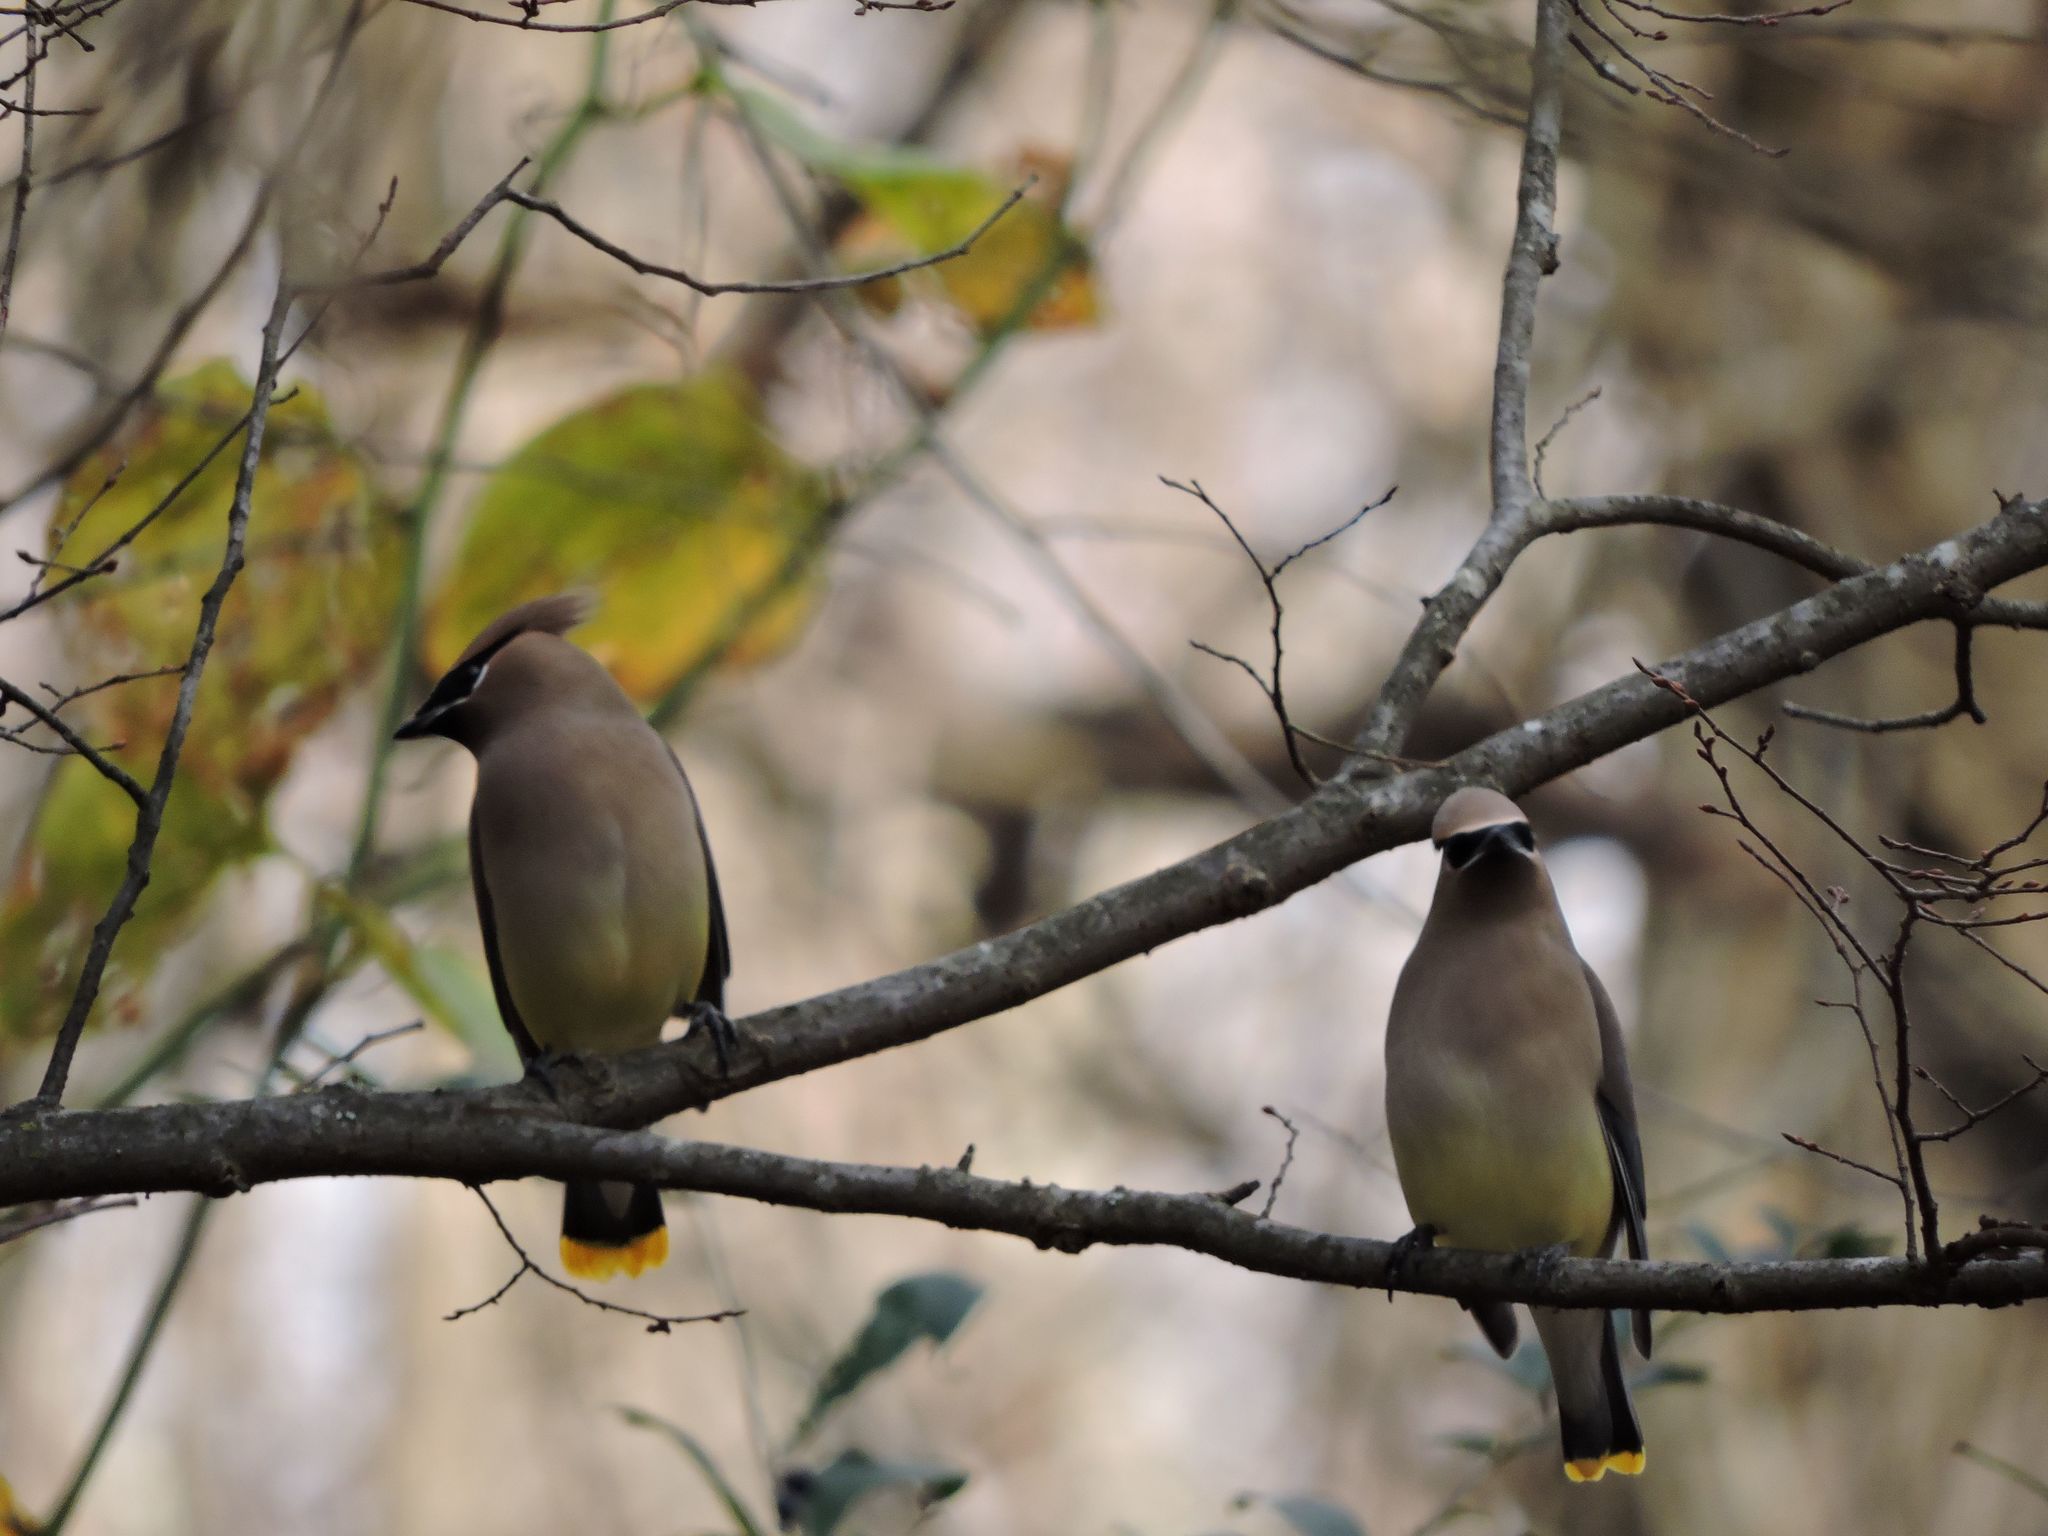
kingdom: Animalia
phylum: Chordata
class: Aves
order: Passeriformes
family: Bombycillidae
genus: Bombycilla
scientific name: Bombycilla cedrorum
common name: Cedar waxwing
